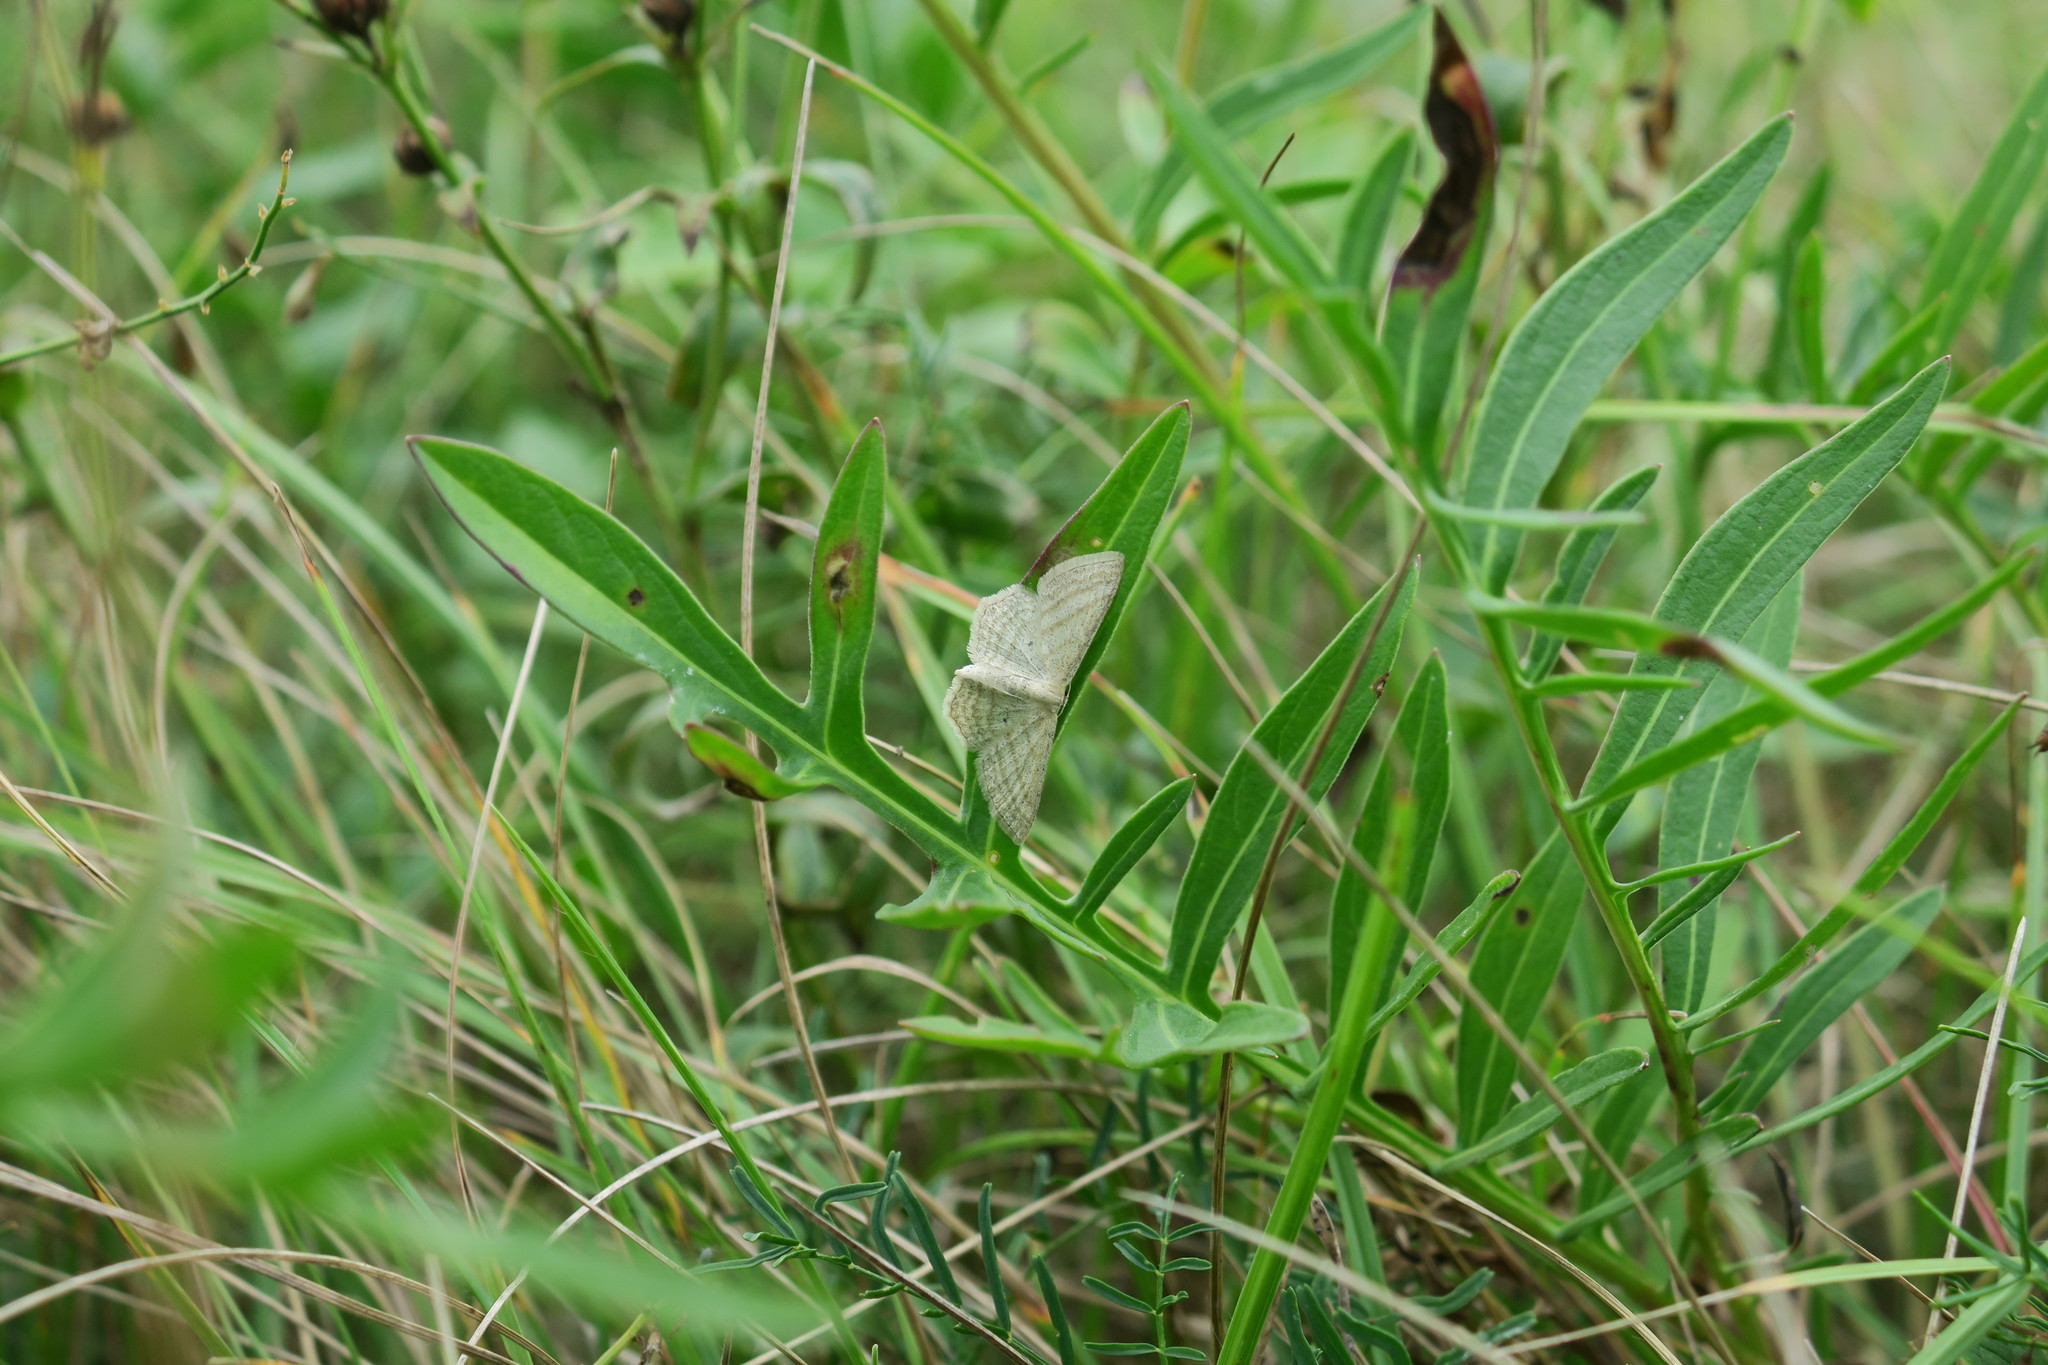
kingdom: Animalia
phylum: Arthropoda
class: Insecta
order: Lepidoptera
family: Geometridae
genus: Scopula
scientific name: Scopula virgulata
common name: Streaked wave
